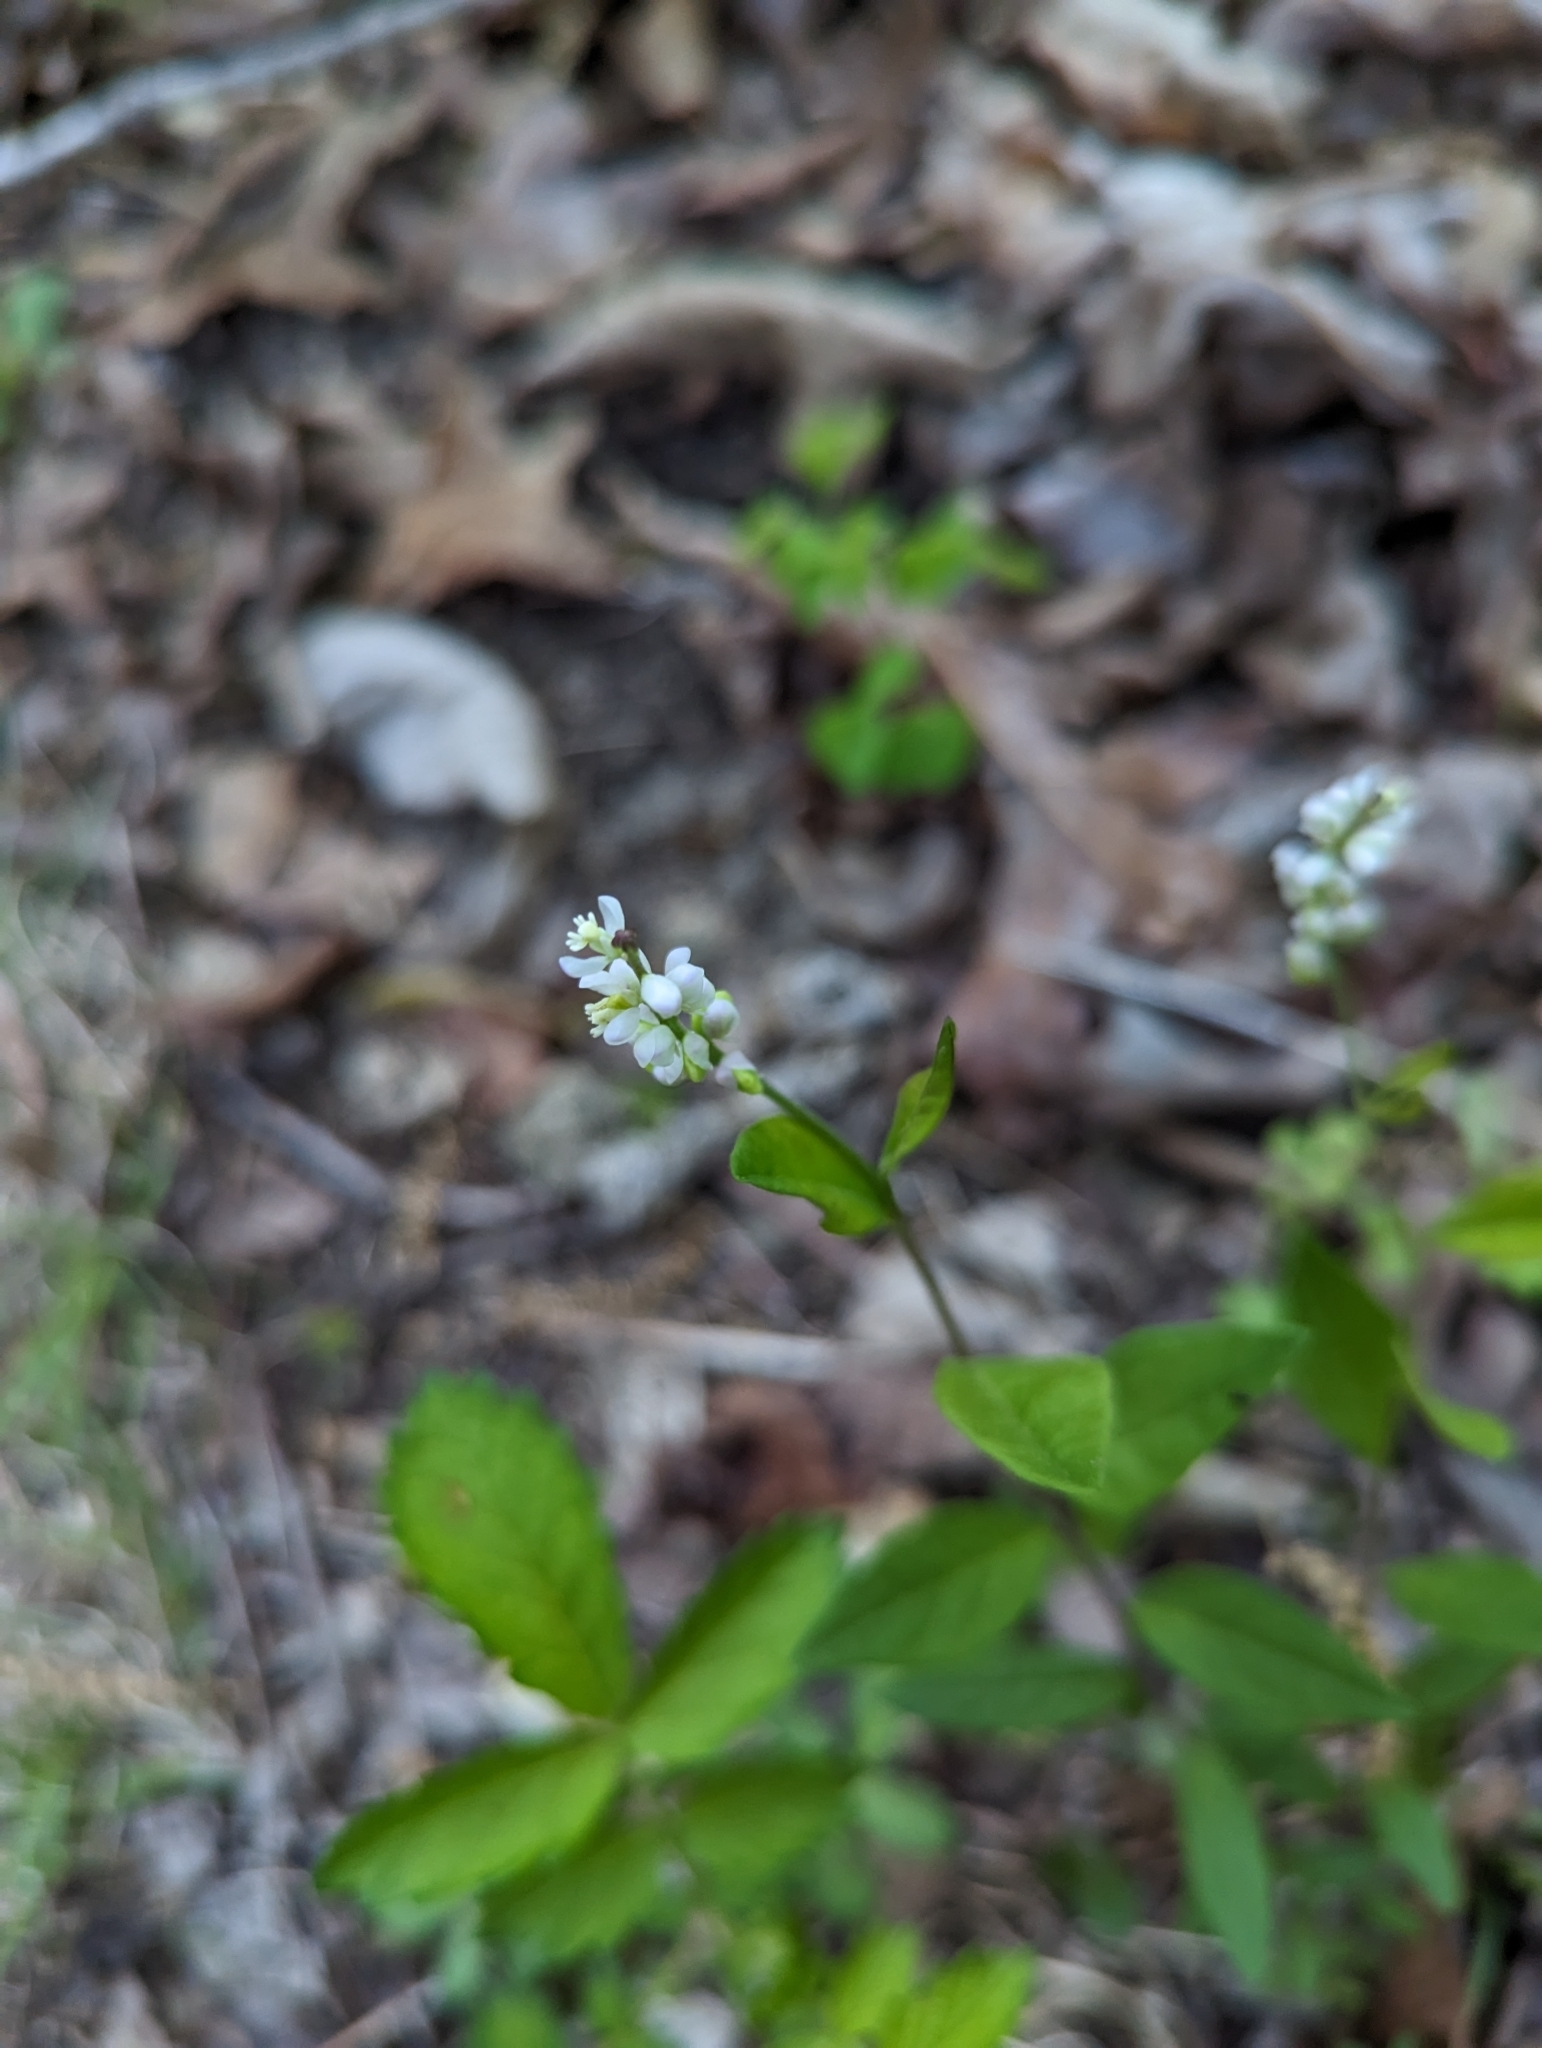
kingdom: Plantae
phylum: Tracheophyta
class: Magnoliopsida
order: Fabales
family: Polygalaceae
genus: Polygala
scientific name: Polygala senega
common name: Seneca snakeroot
